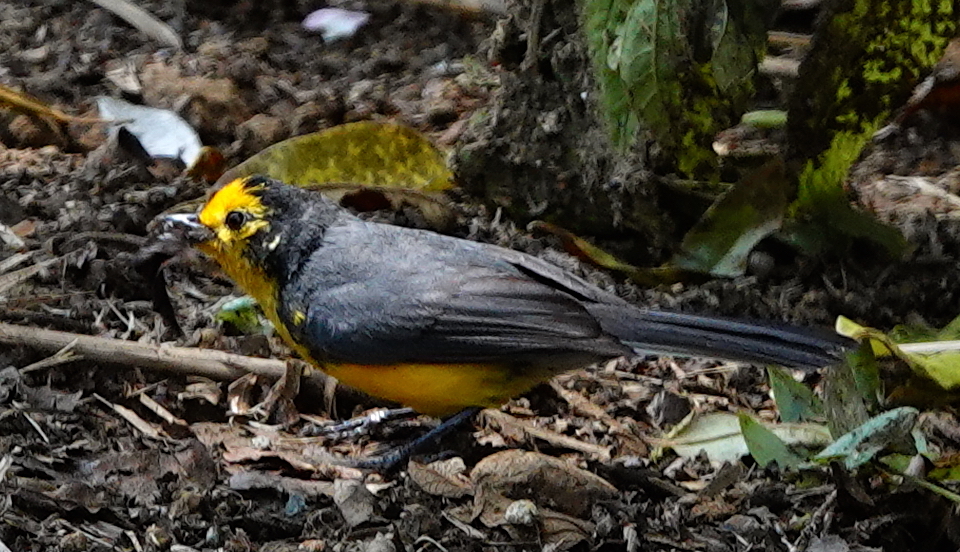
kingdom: Animalia
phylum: Chordata
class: Aves
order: Passeriformes
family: Parulidae
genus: Myioborus
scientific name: Myioborus ornatus
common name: Golden-fronted whitestart
